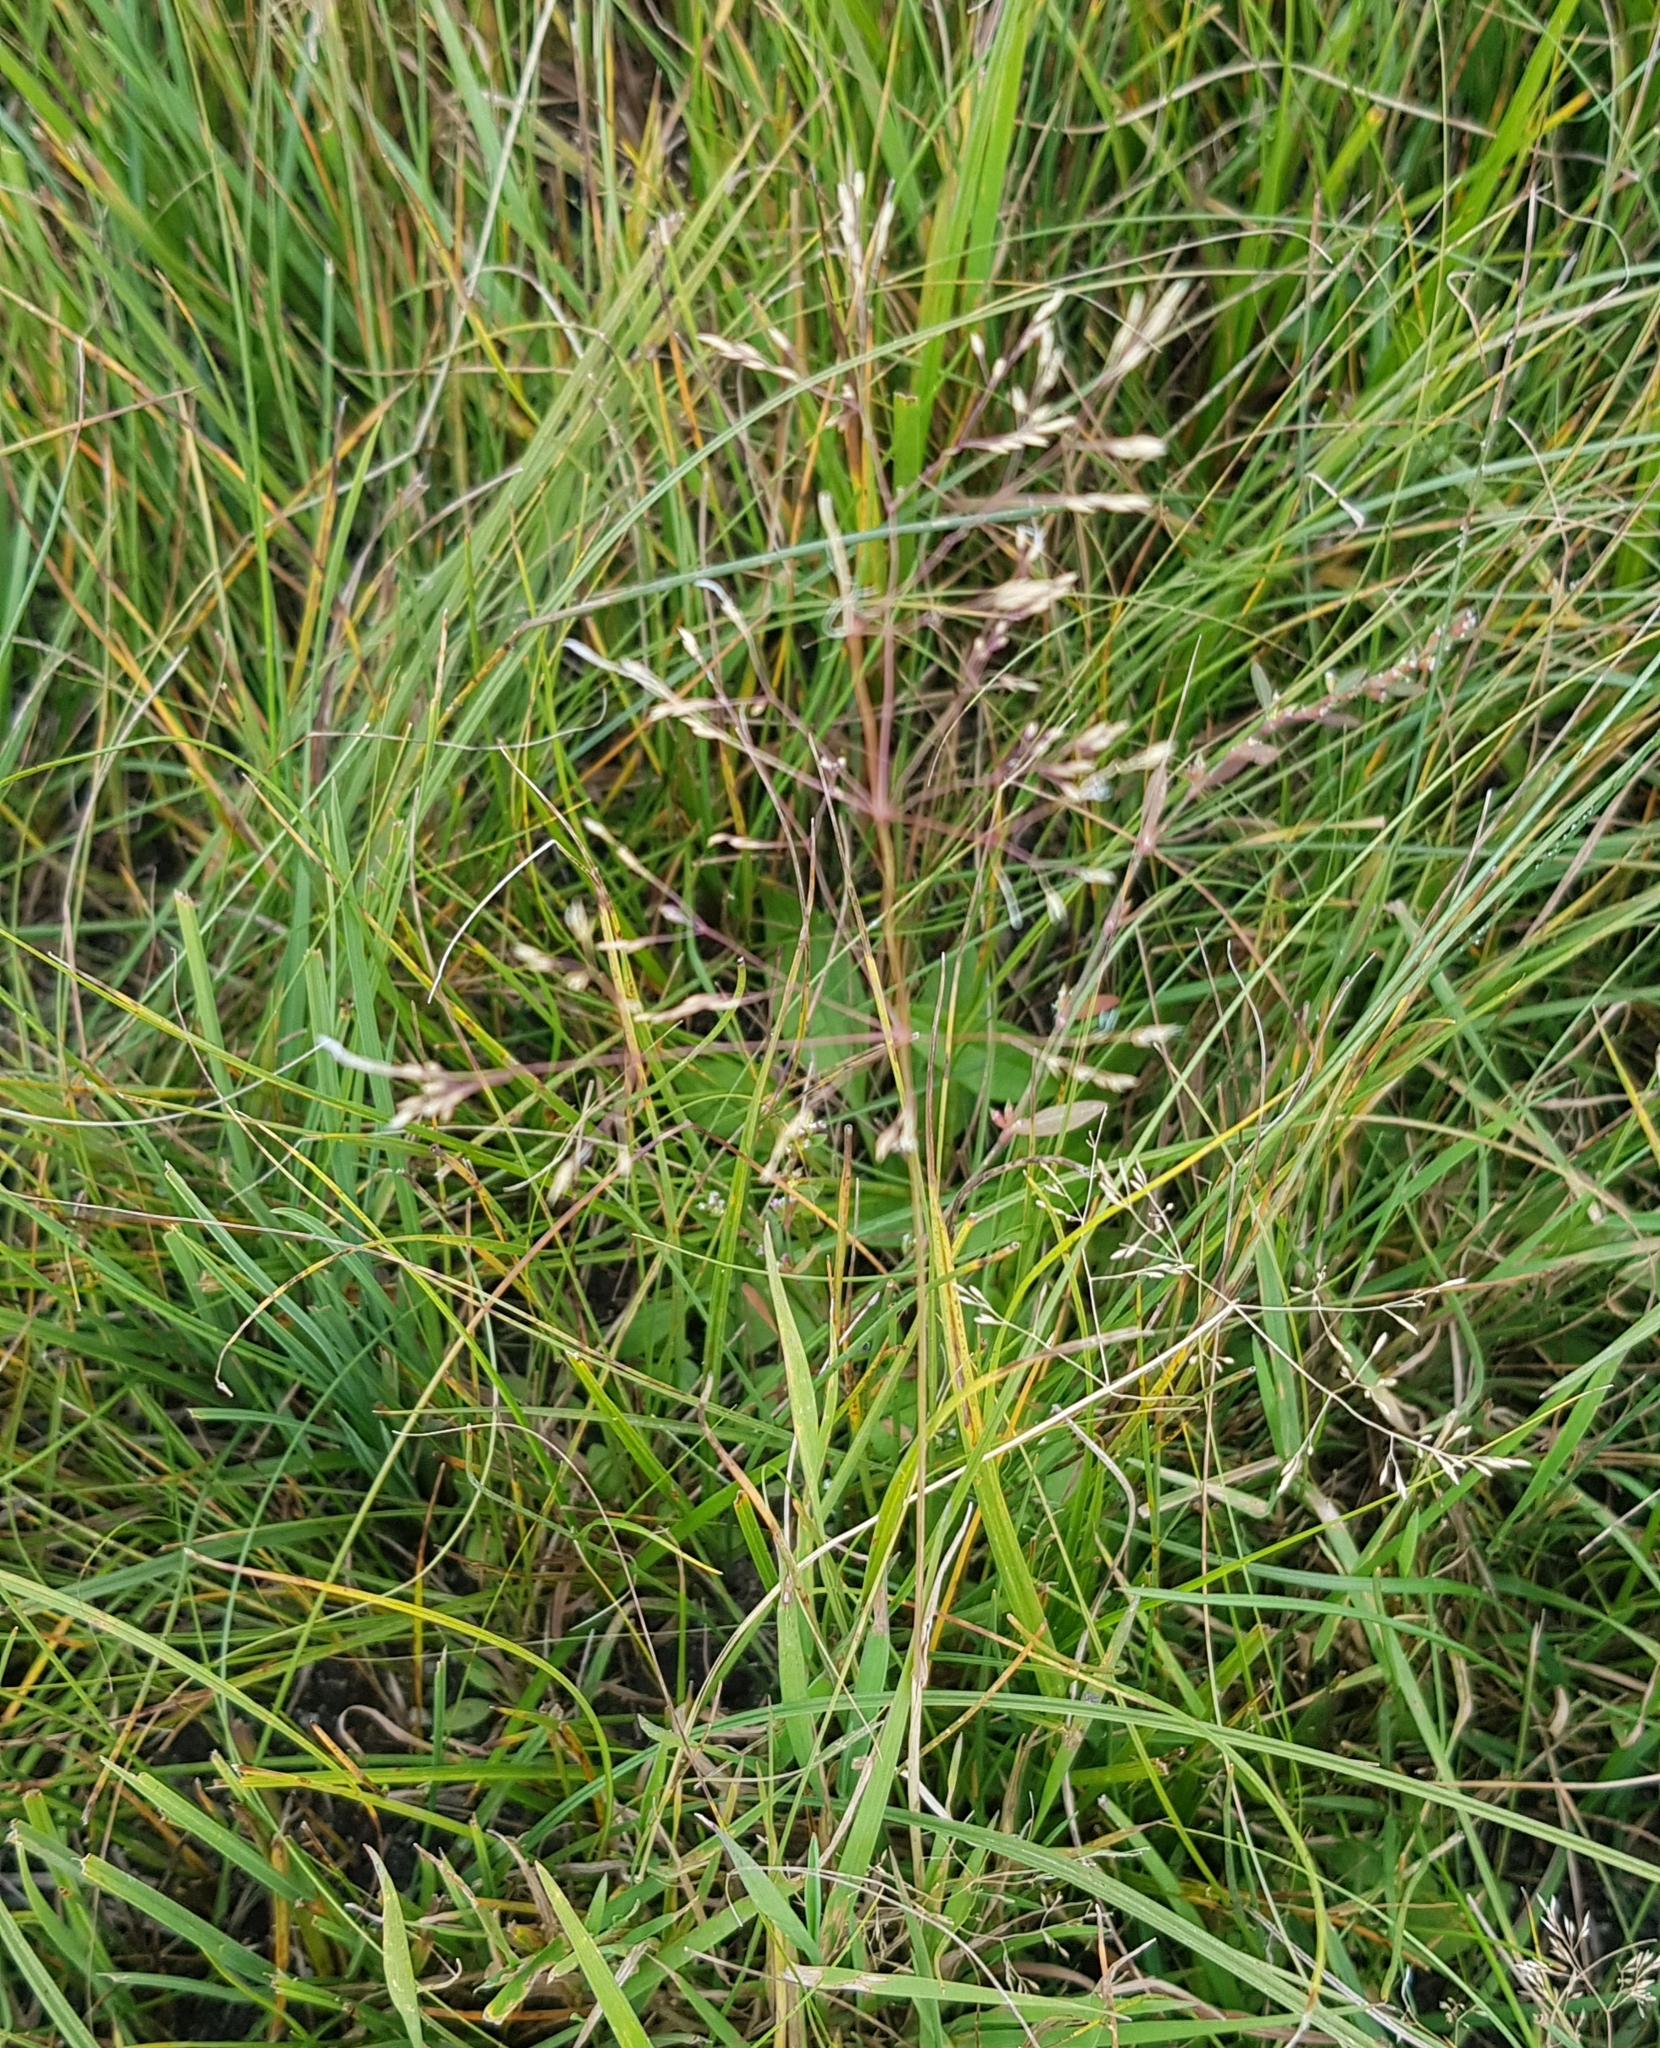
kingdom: Plantae
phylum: Tracheophyta
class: Liliopsida
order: Poales
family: Poaceae
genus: Poa
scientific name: Poa pratensis
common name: Kentucky bluegrass
